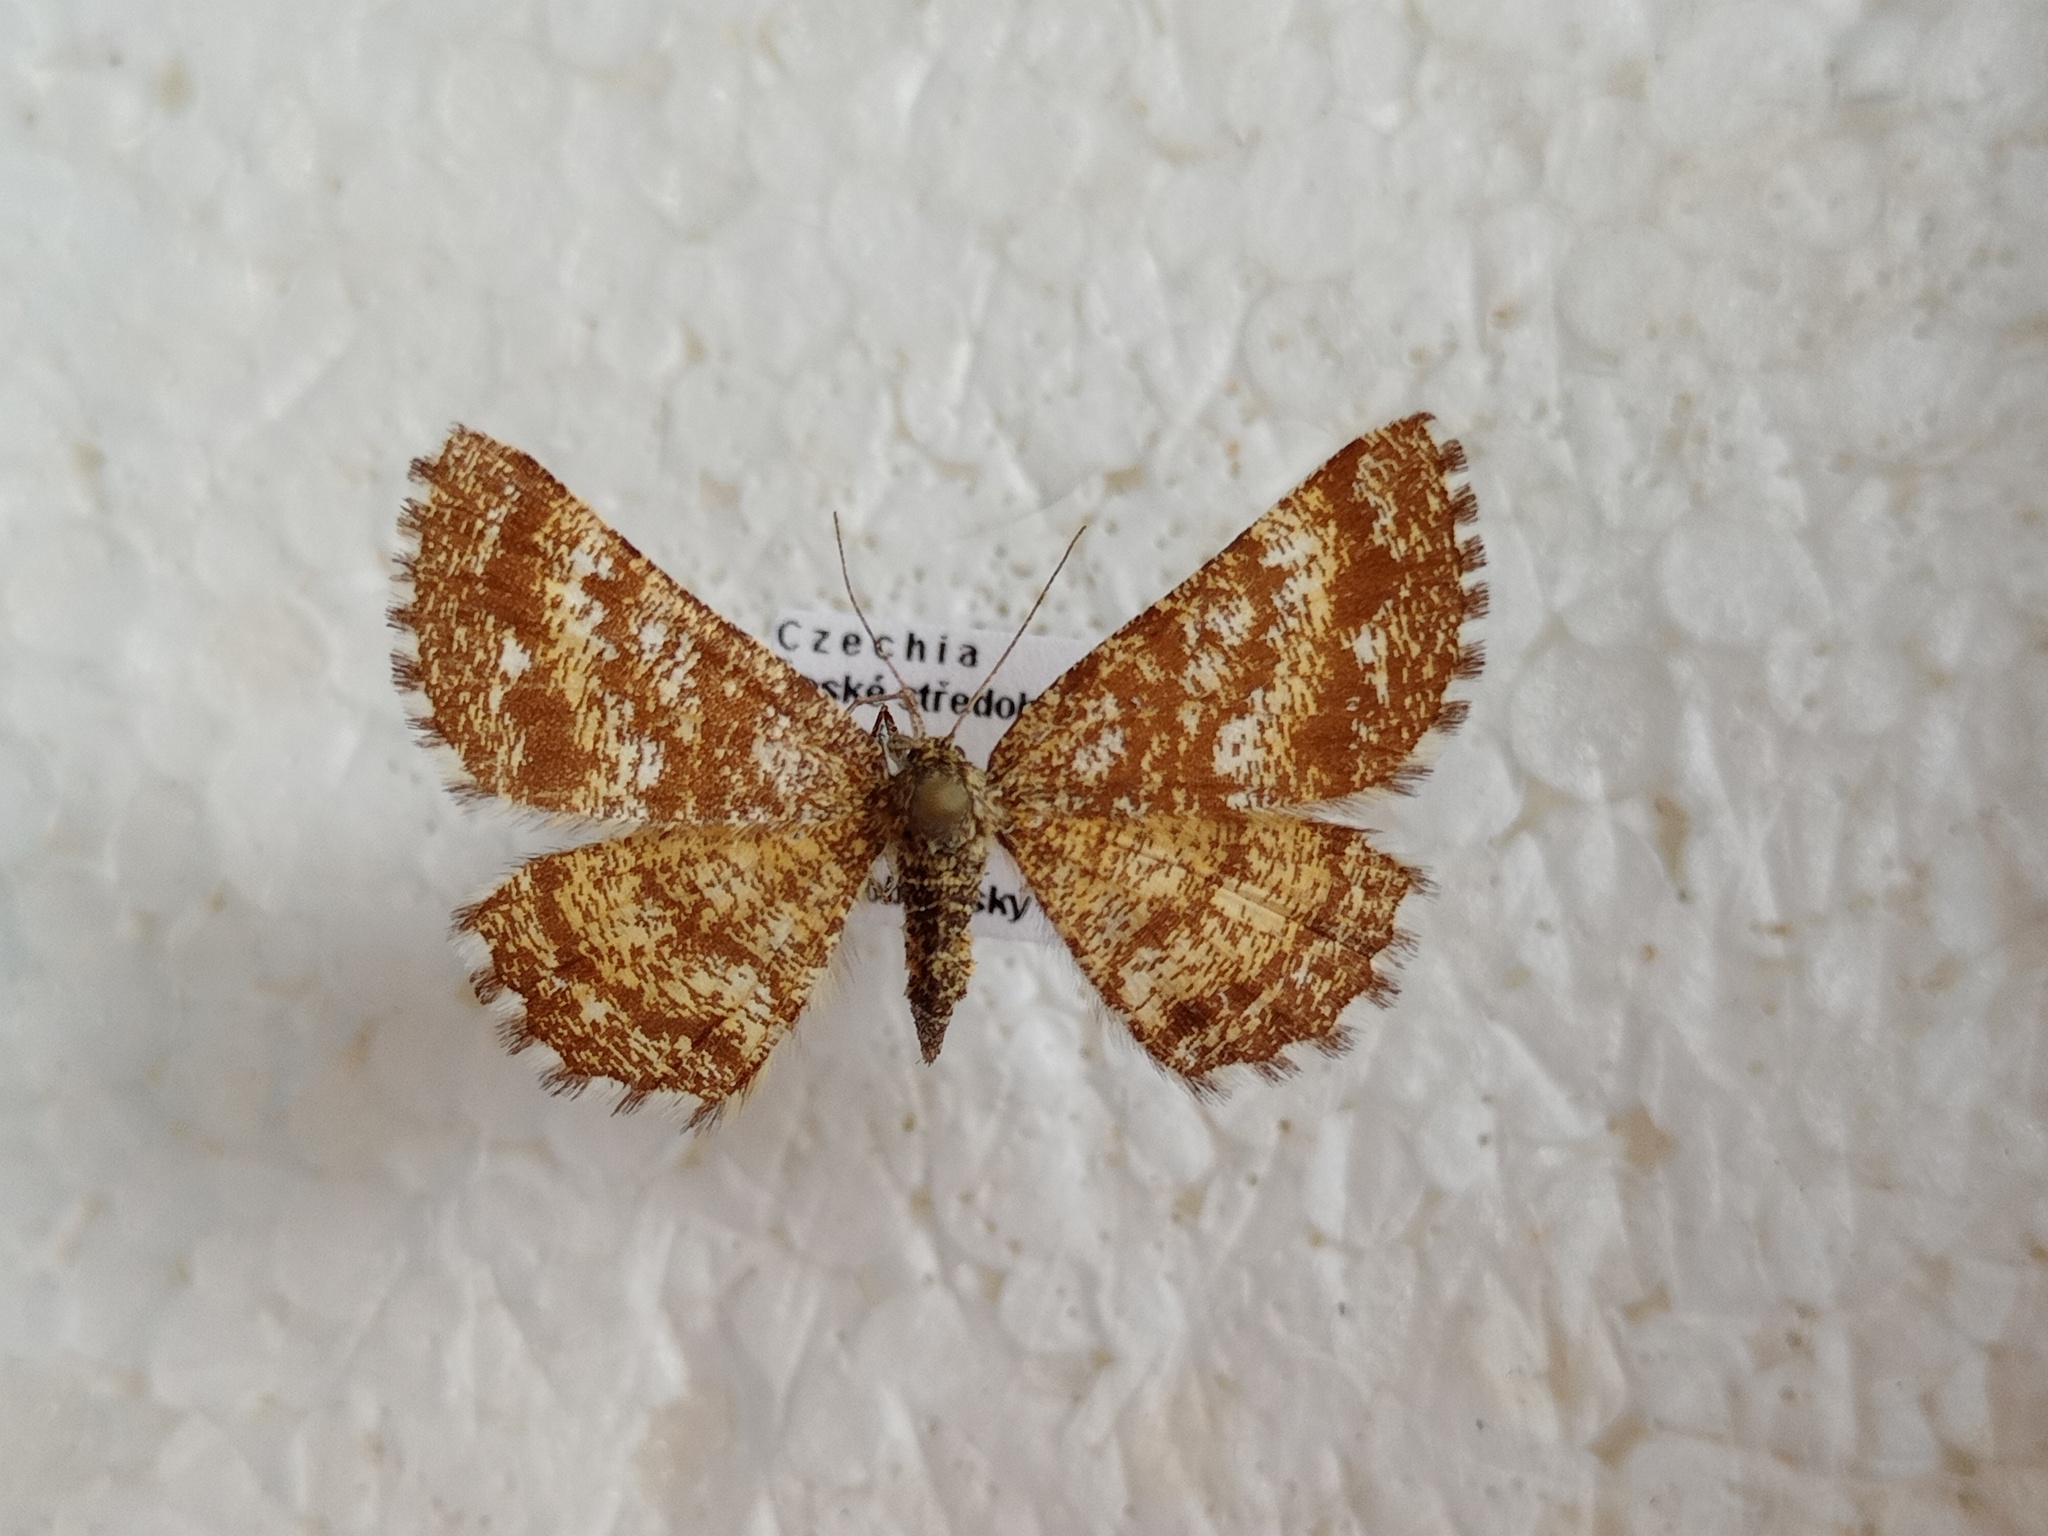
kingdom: Animalia
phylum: Arthropoda
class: Insecta
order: Lepidoptera
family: Geometridae
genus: Ematurga
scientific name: Ematurga atomaria
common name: Common heath
